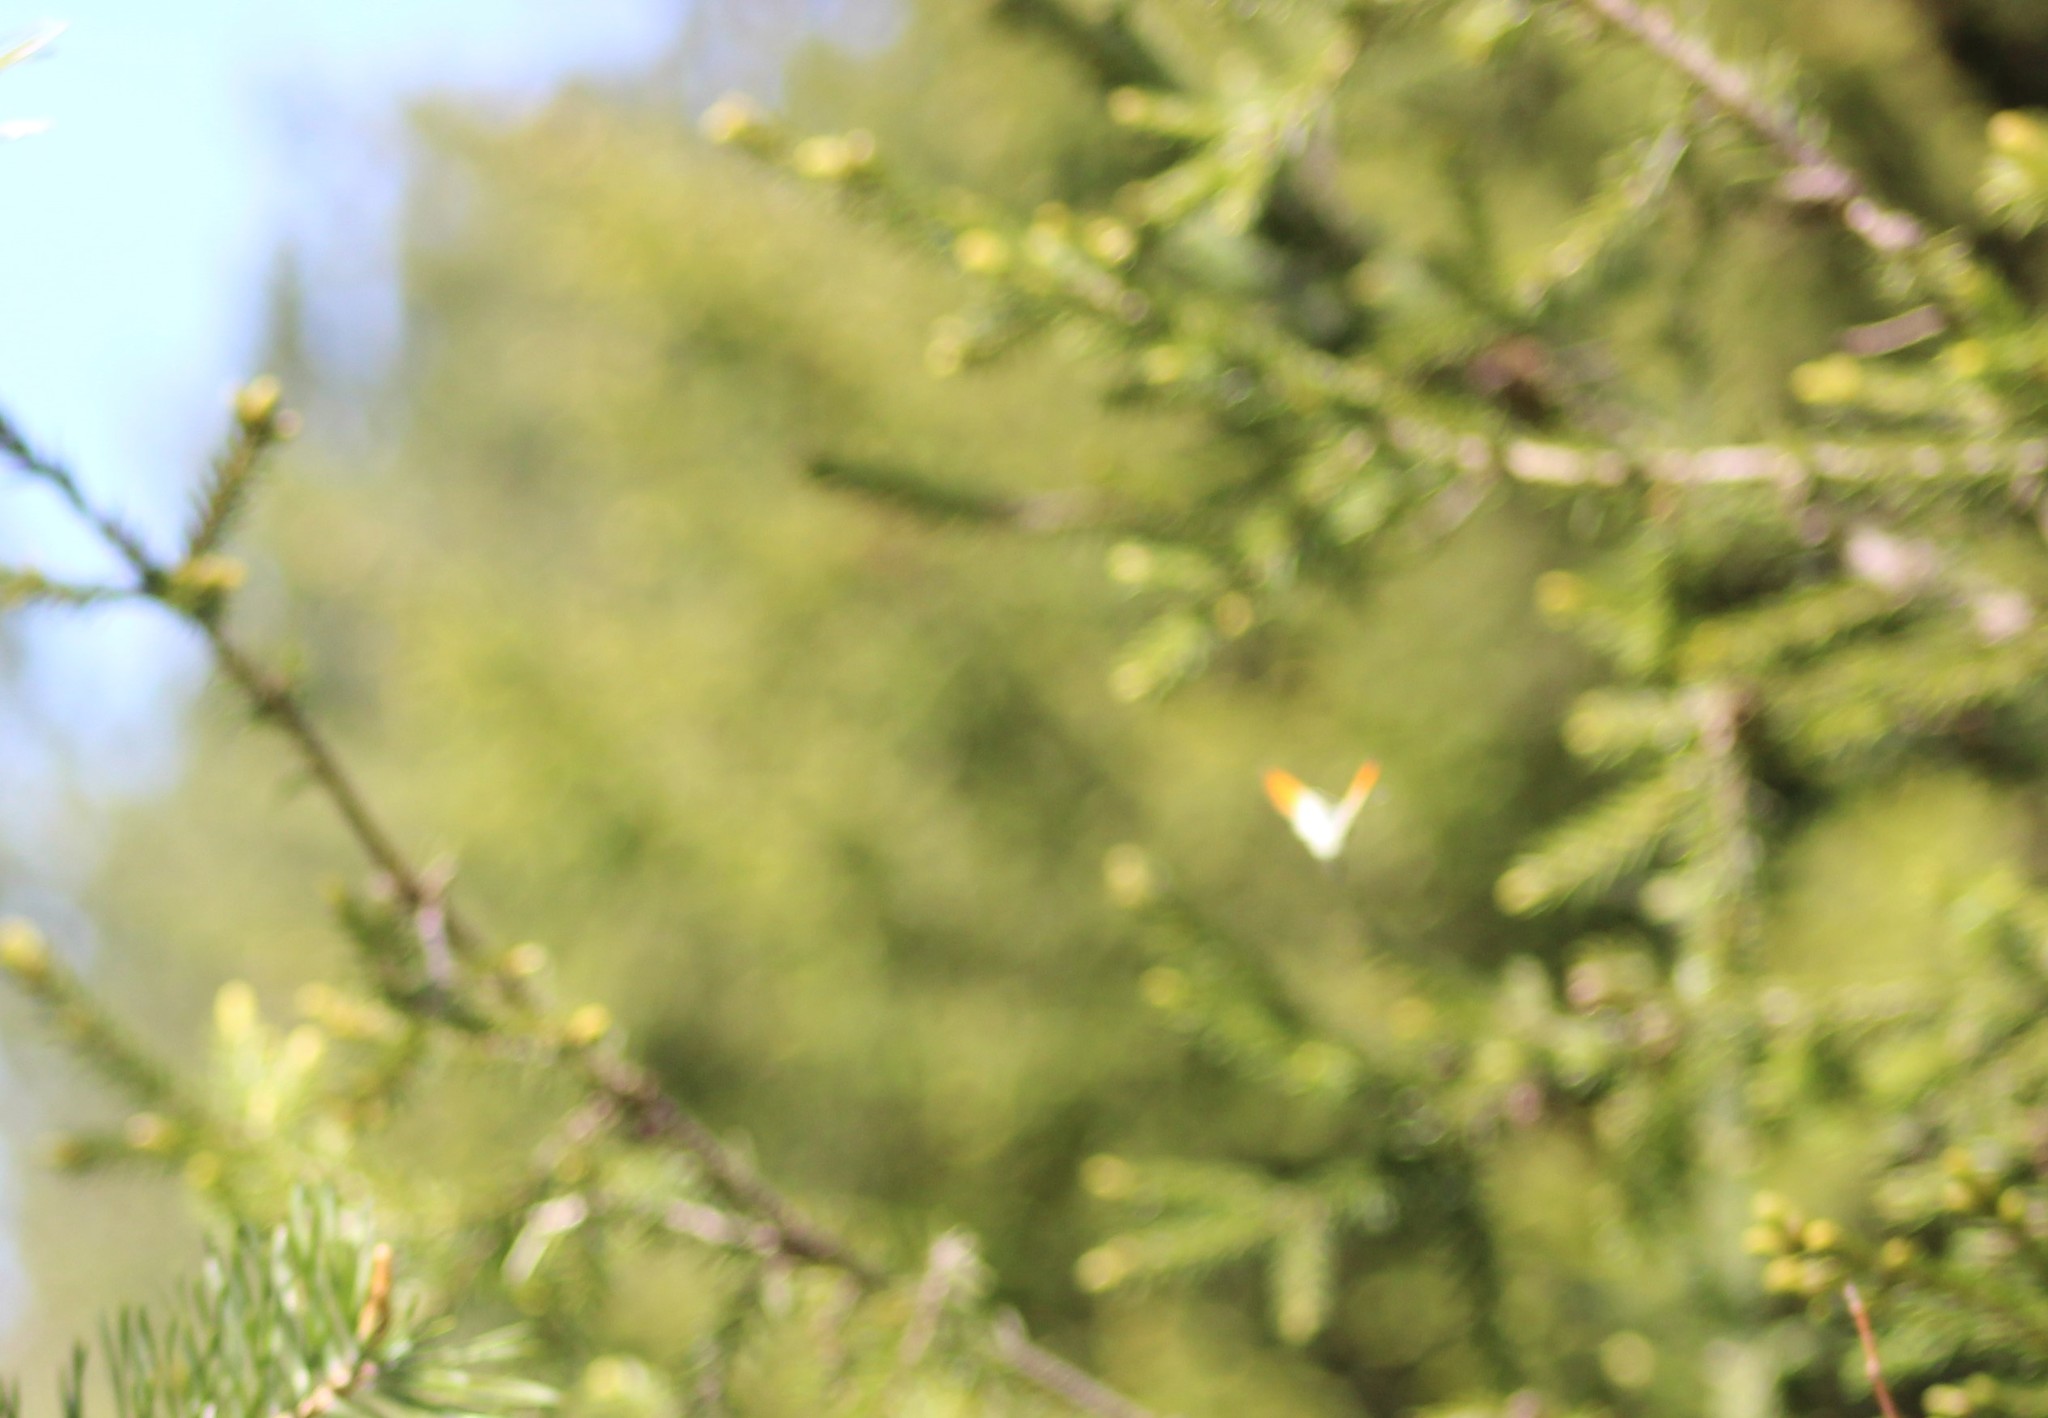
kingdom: Animalia
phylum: Arthropoda
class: Insecta
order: Lepidoptera
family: Pieridae
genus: Anthocharis
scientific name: Anthocharis cardamines
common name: Orange-tip
